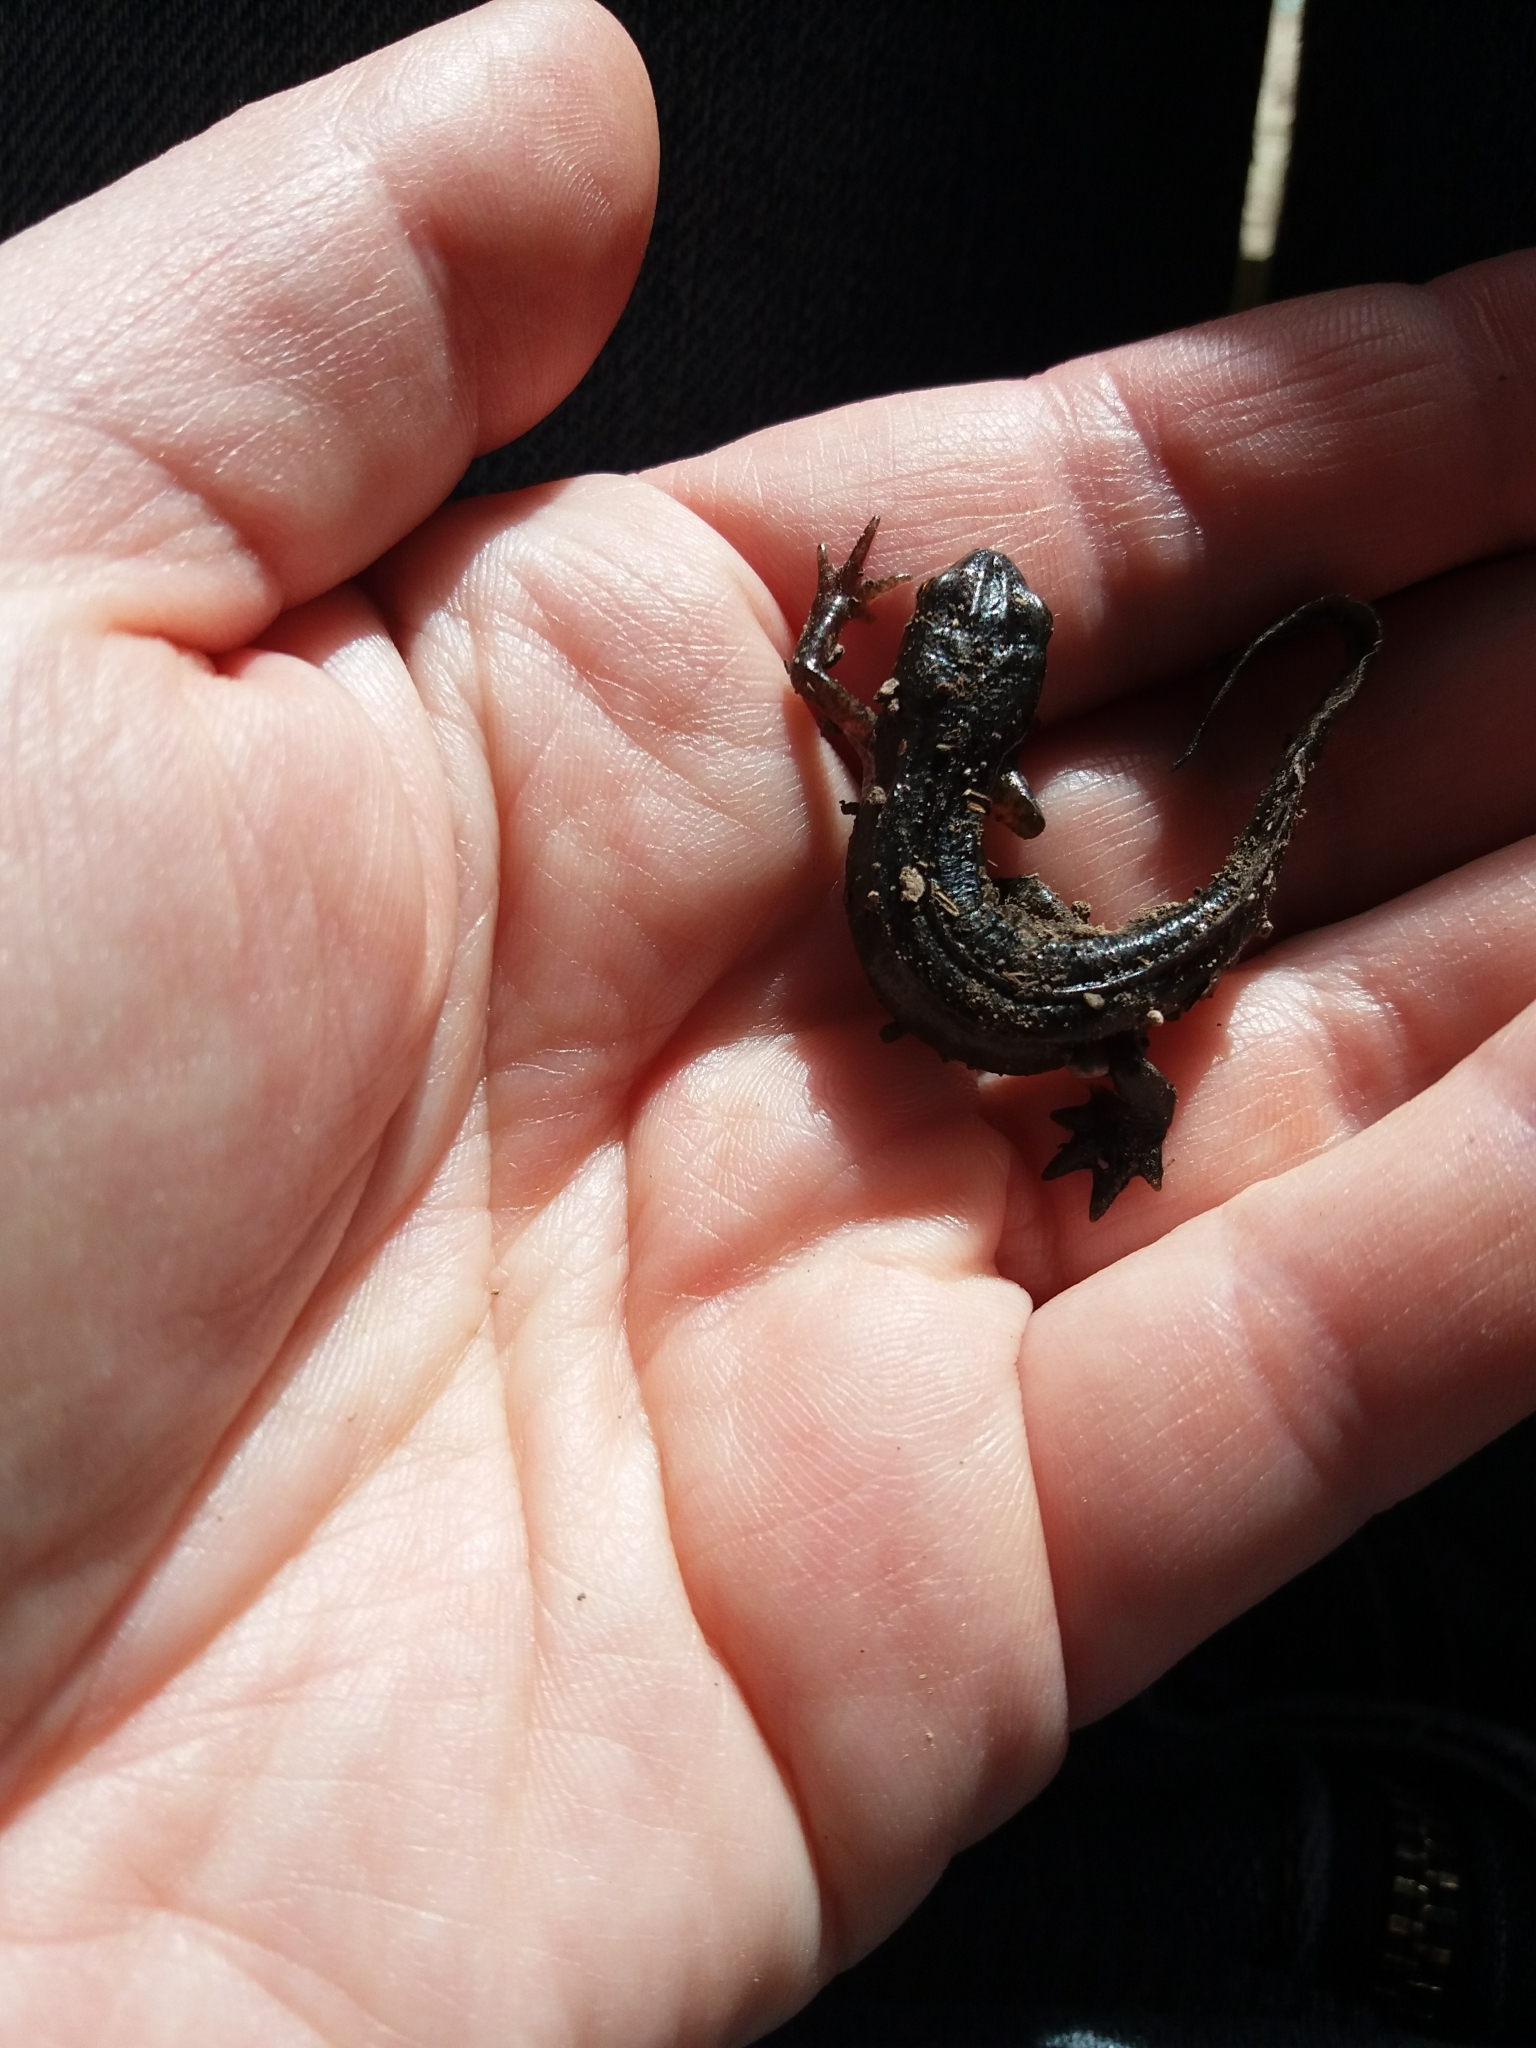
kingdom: Animalia
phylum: Chordata
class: Amphibia
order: Caudata
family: Salamandridae
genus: Lissotriton
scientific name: Lissotriton helveticus
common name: Palmate newt
